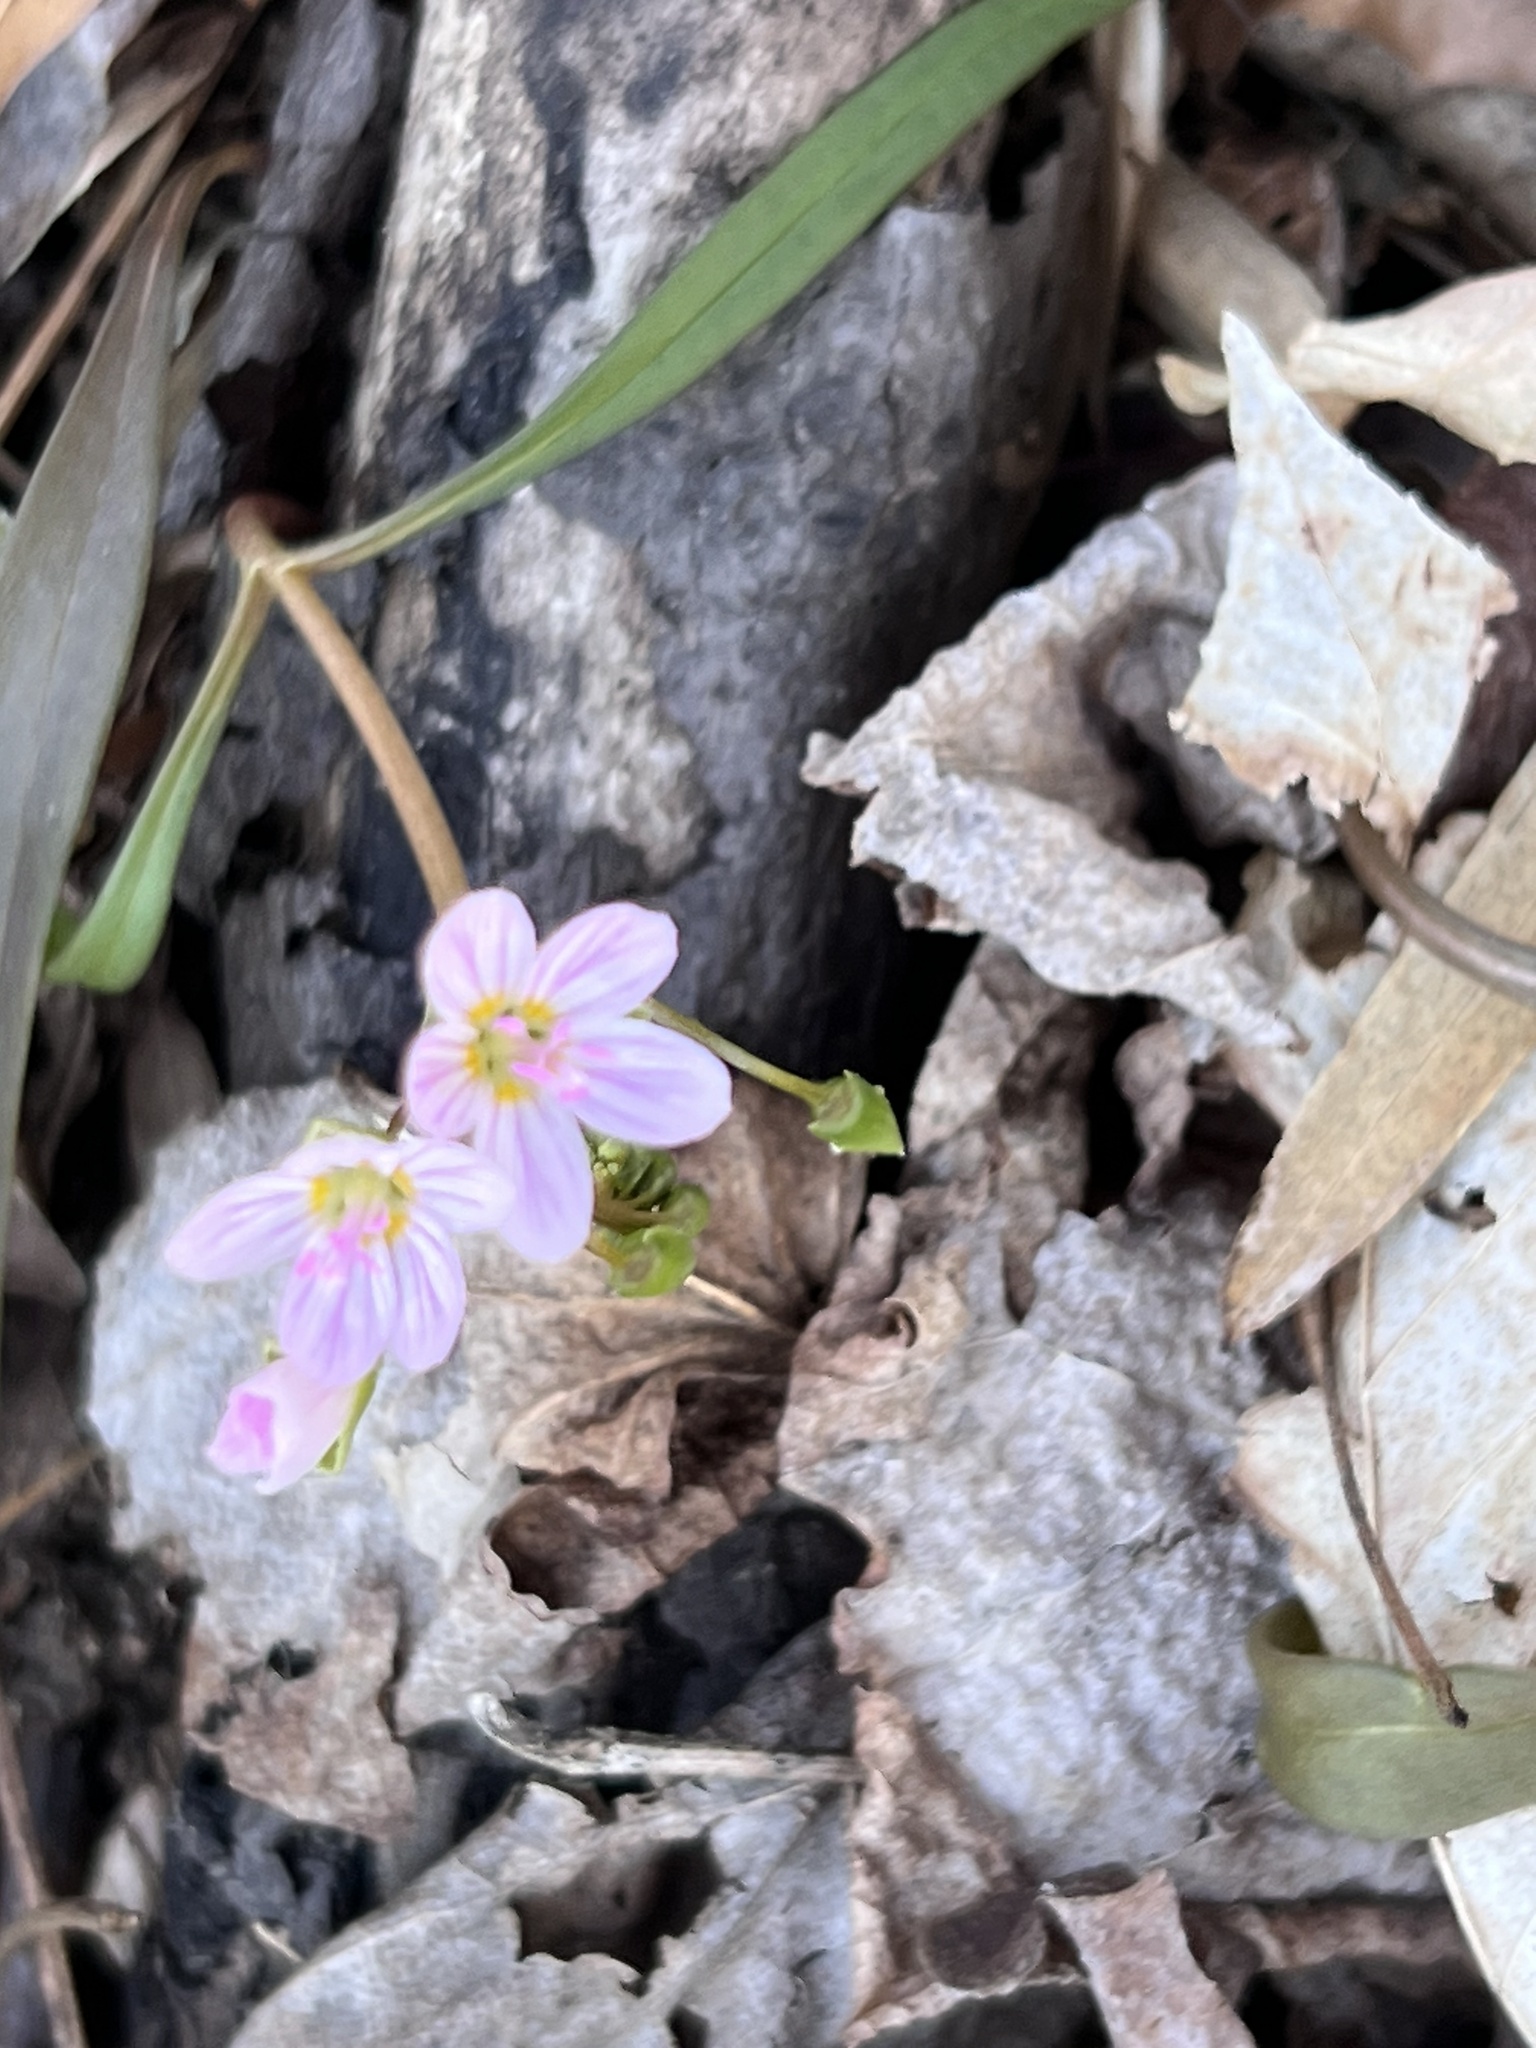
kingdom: Plantae
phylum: Tracheophyta
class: Magnoliopsida
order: Caryophyllales
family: Montiaceae
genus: Claytonia
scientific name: Claytonia virginica
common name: Virginia springbeauty
